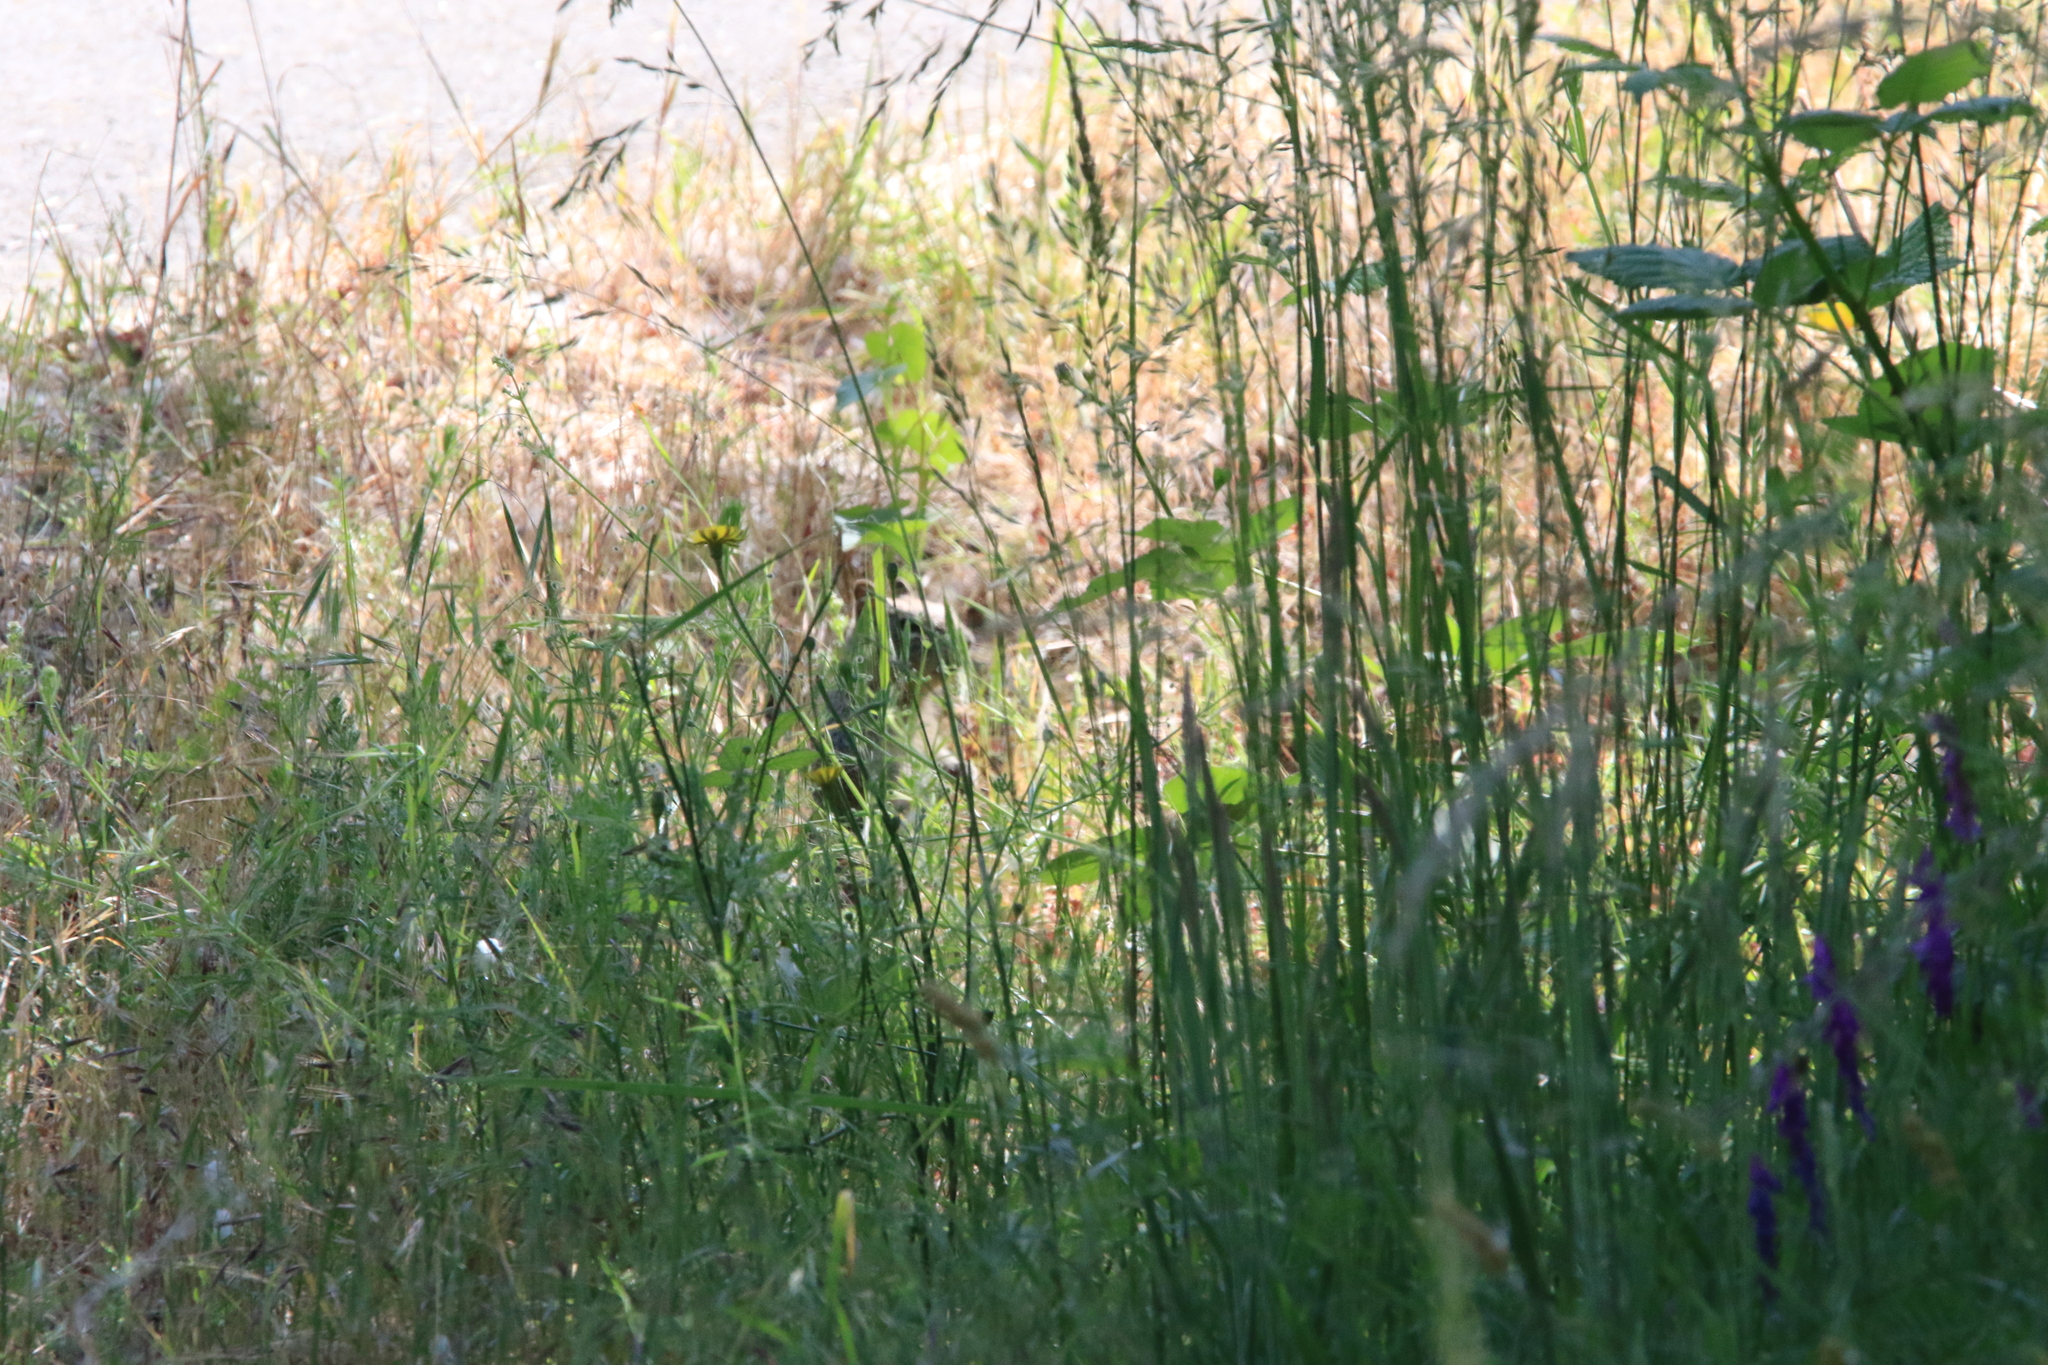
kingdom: Animalia
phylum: Chordata
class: Mammalia
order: Rodentia
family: Sciuridae
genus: Otospermophilus
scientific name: Otospermophilus beecheyi
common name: California ground squirrel
